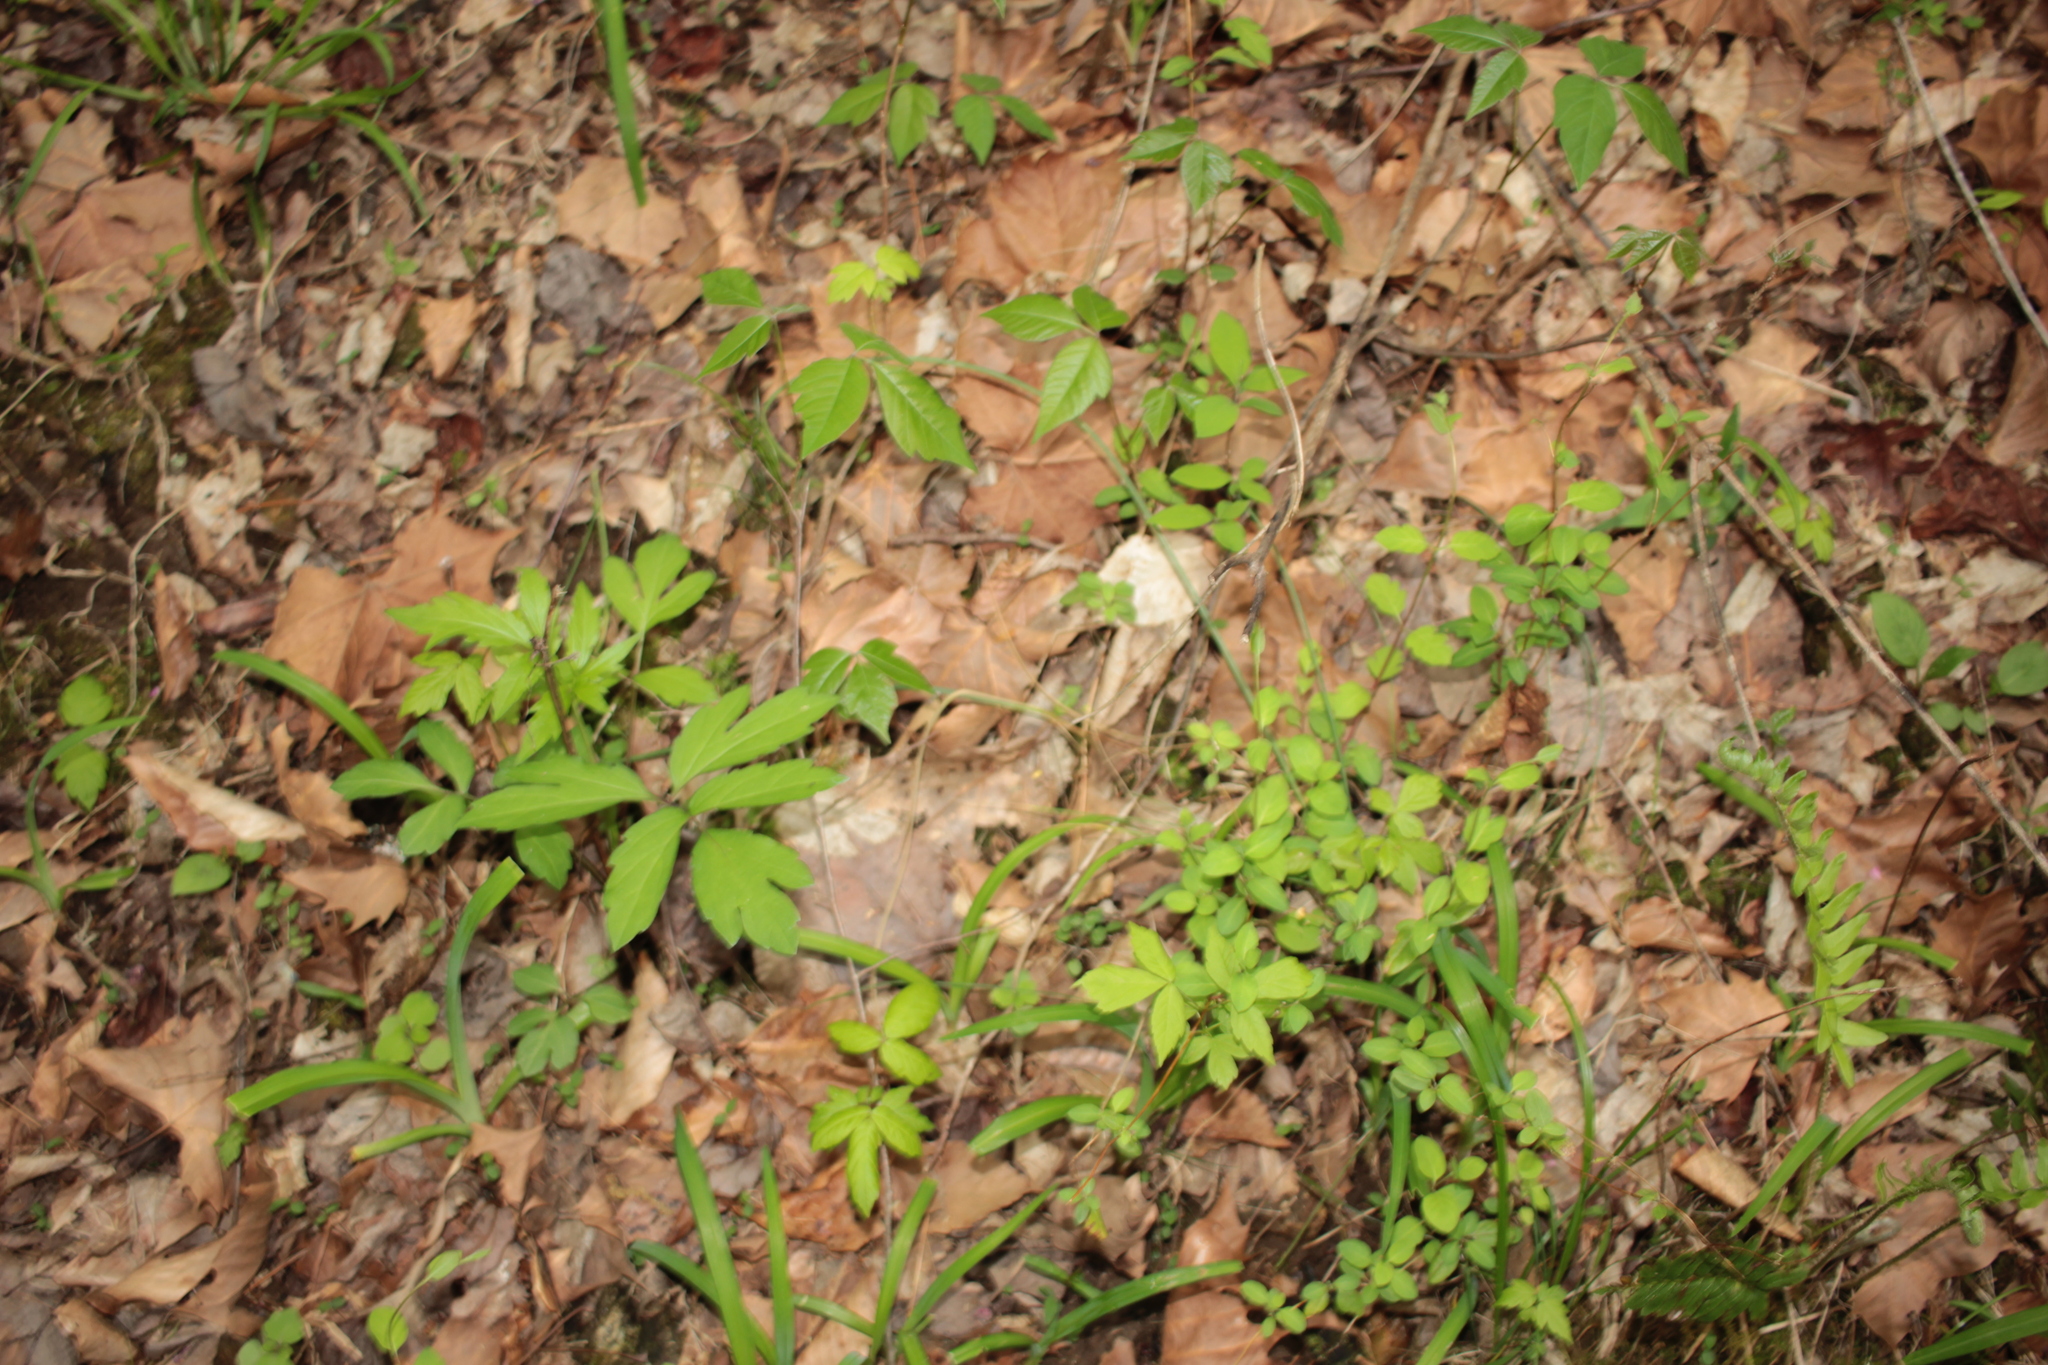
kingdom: Plantae
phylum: Tracheophyta
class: Magnoliopsida
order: Sapindales
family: Anacardiaceae
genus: Toxicodendron
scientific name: Toxicodendron radicans
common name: Poison ivy
